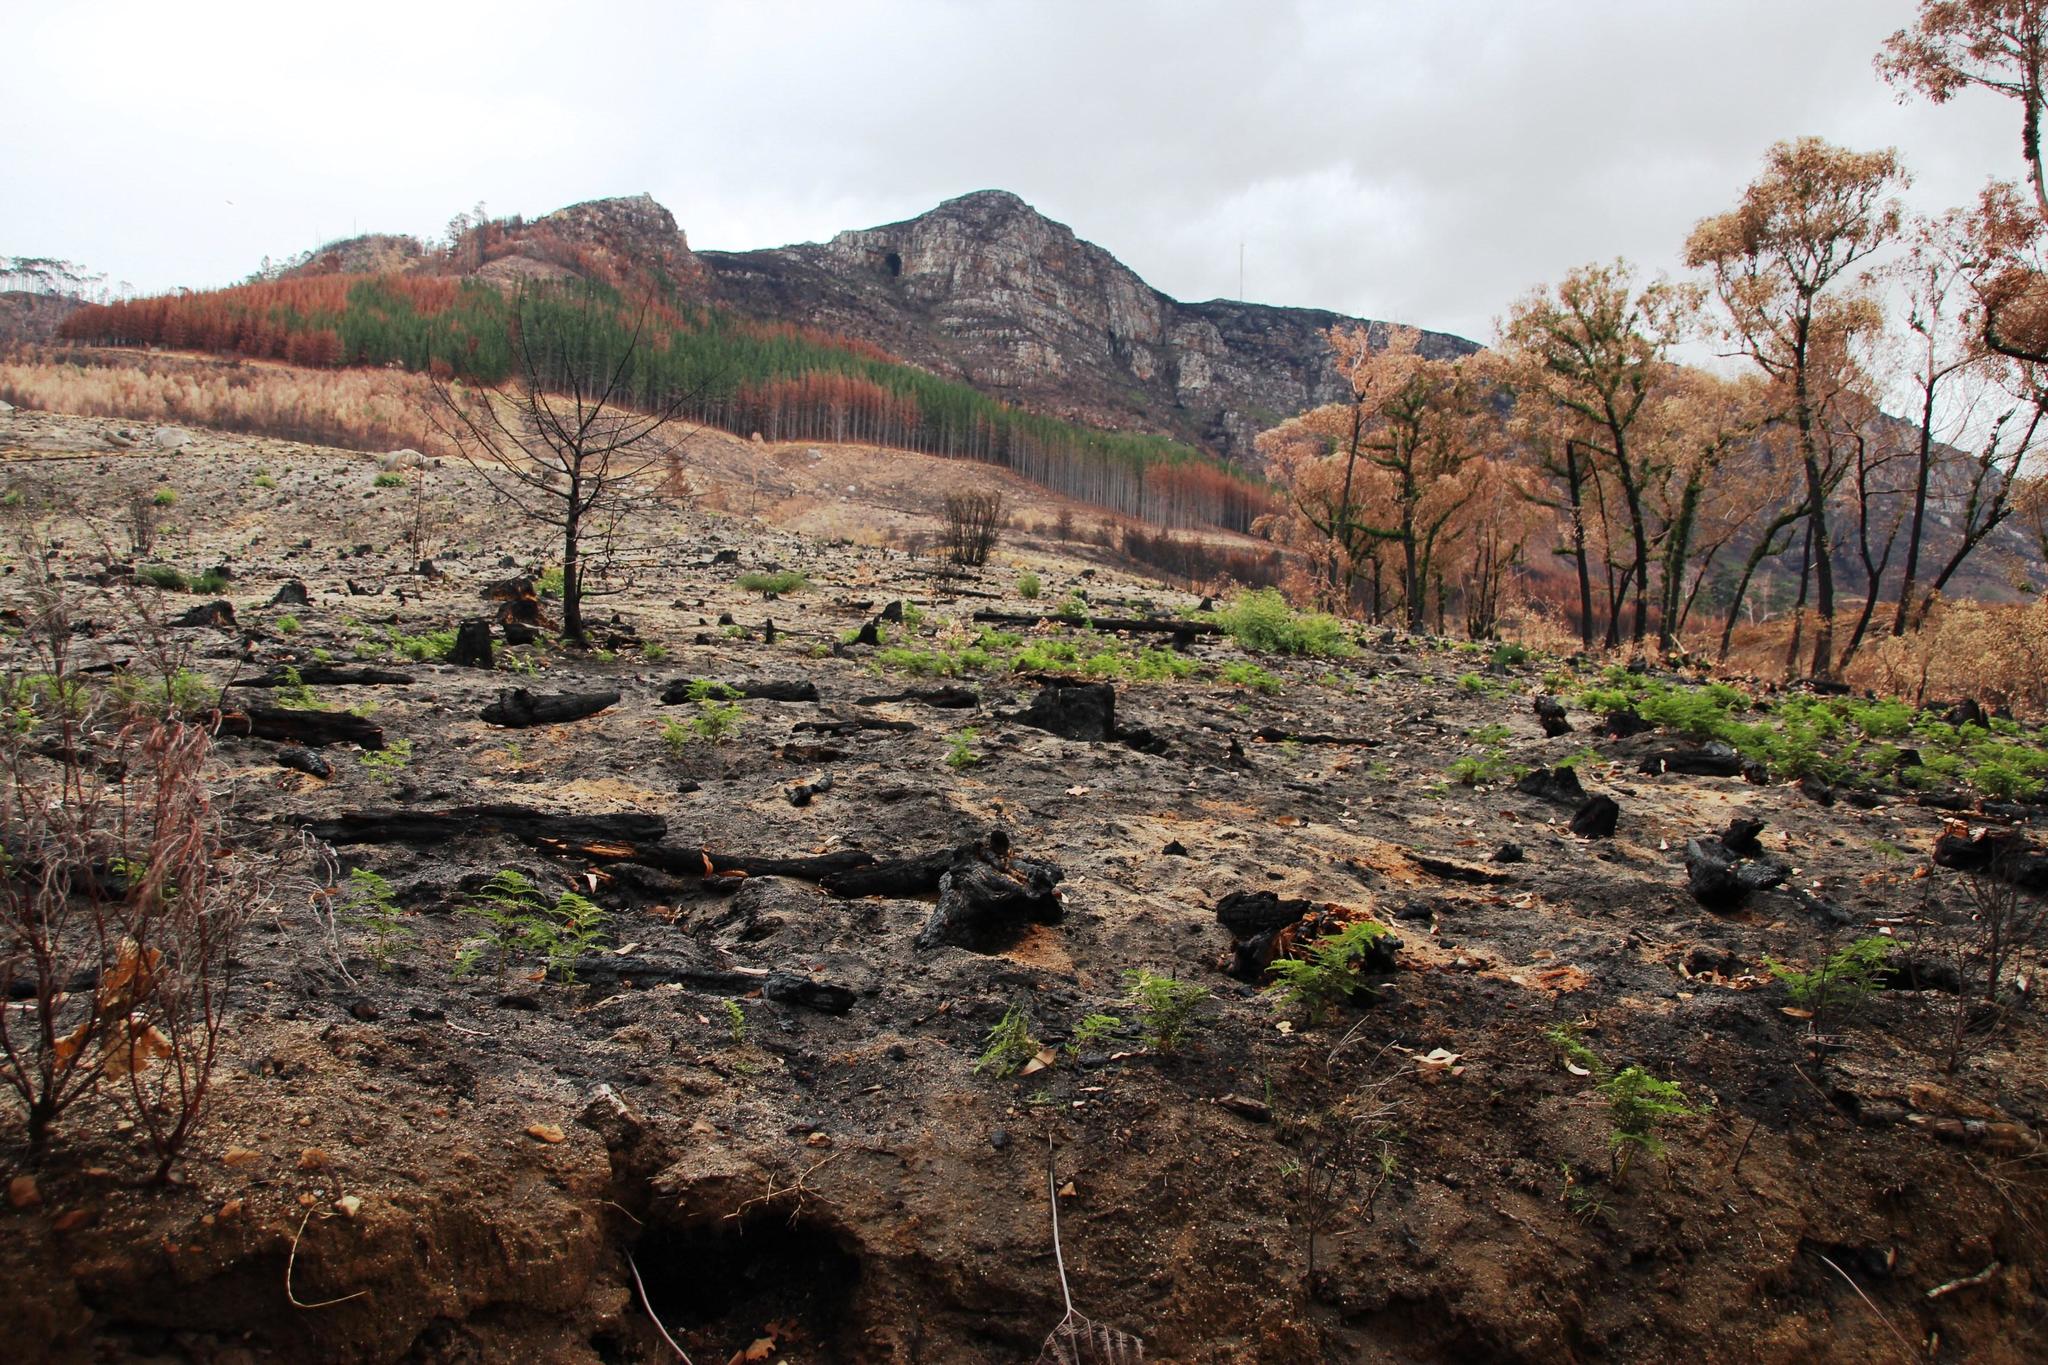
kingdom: Plantae
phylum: Tracheophyta
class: Polypodiopsida
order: Polypodiales
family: Dennstaedtiaceae
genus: Pteridium
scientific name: Pteridium aquilinum
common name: Bracken
